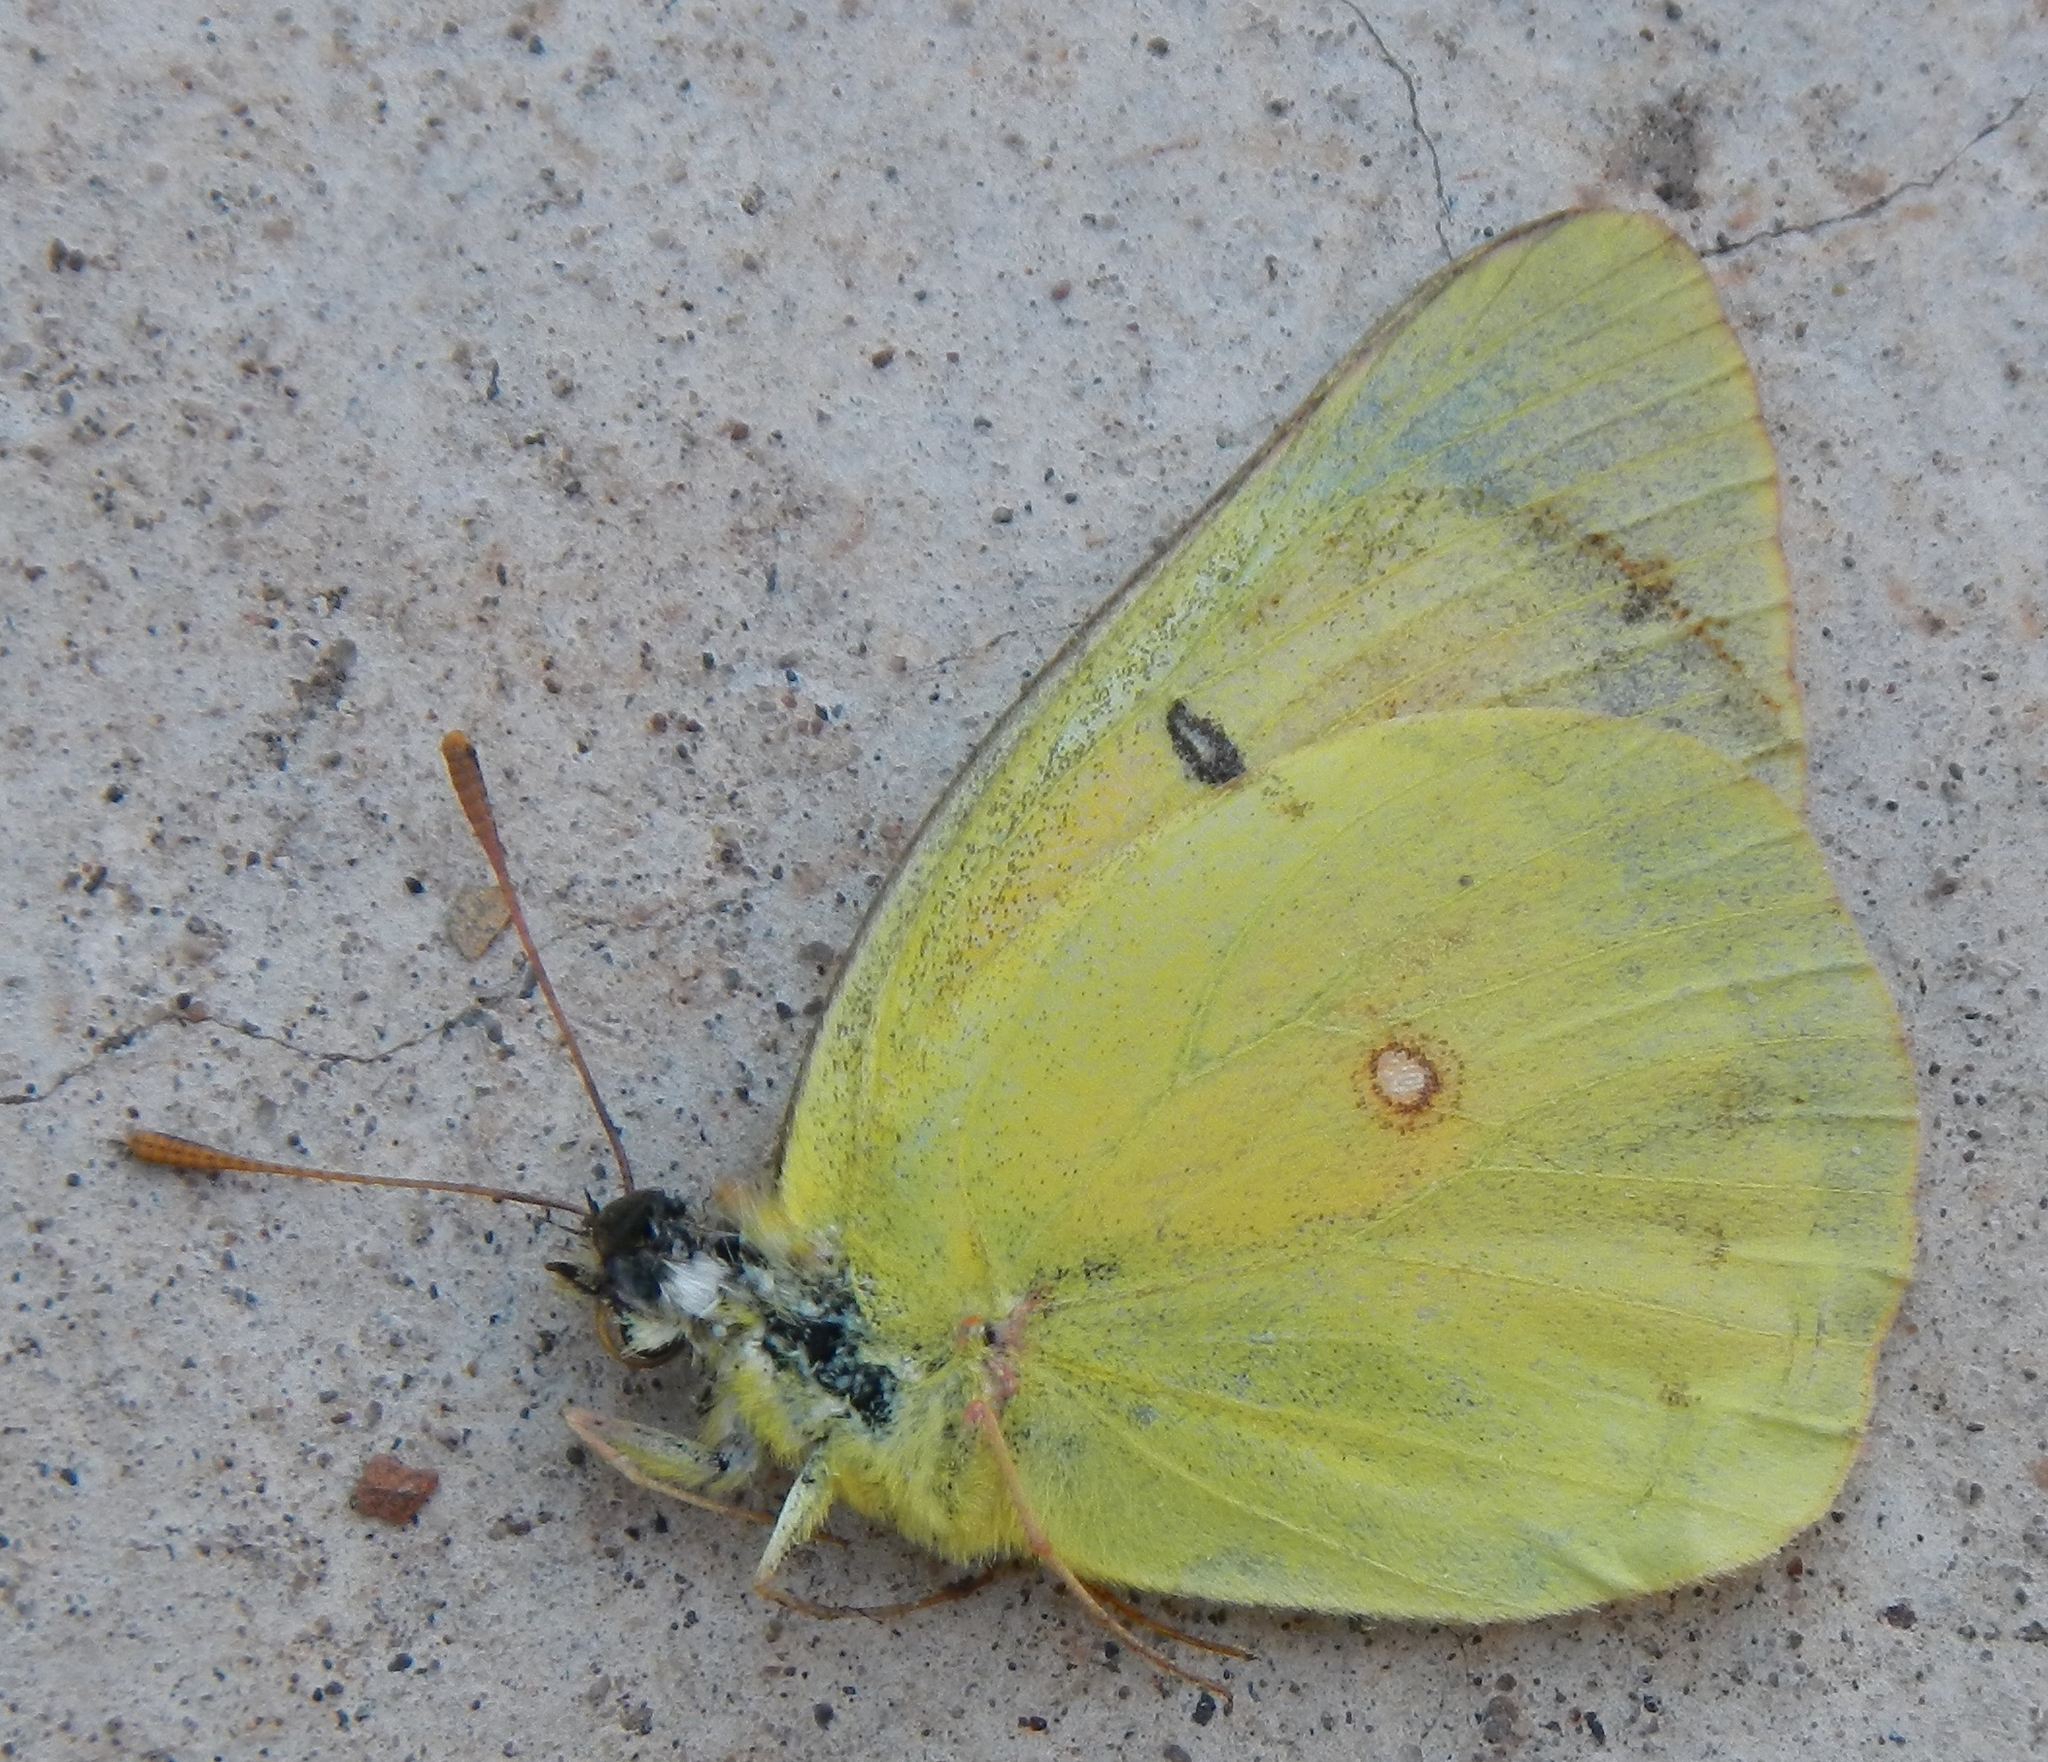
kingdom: Animalia
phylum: Arthropoda
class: Insecta
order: Lepidoptera
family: Pieridae
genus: Colias
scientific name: Colias eurytheme
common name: Alfalfa butterfly
